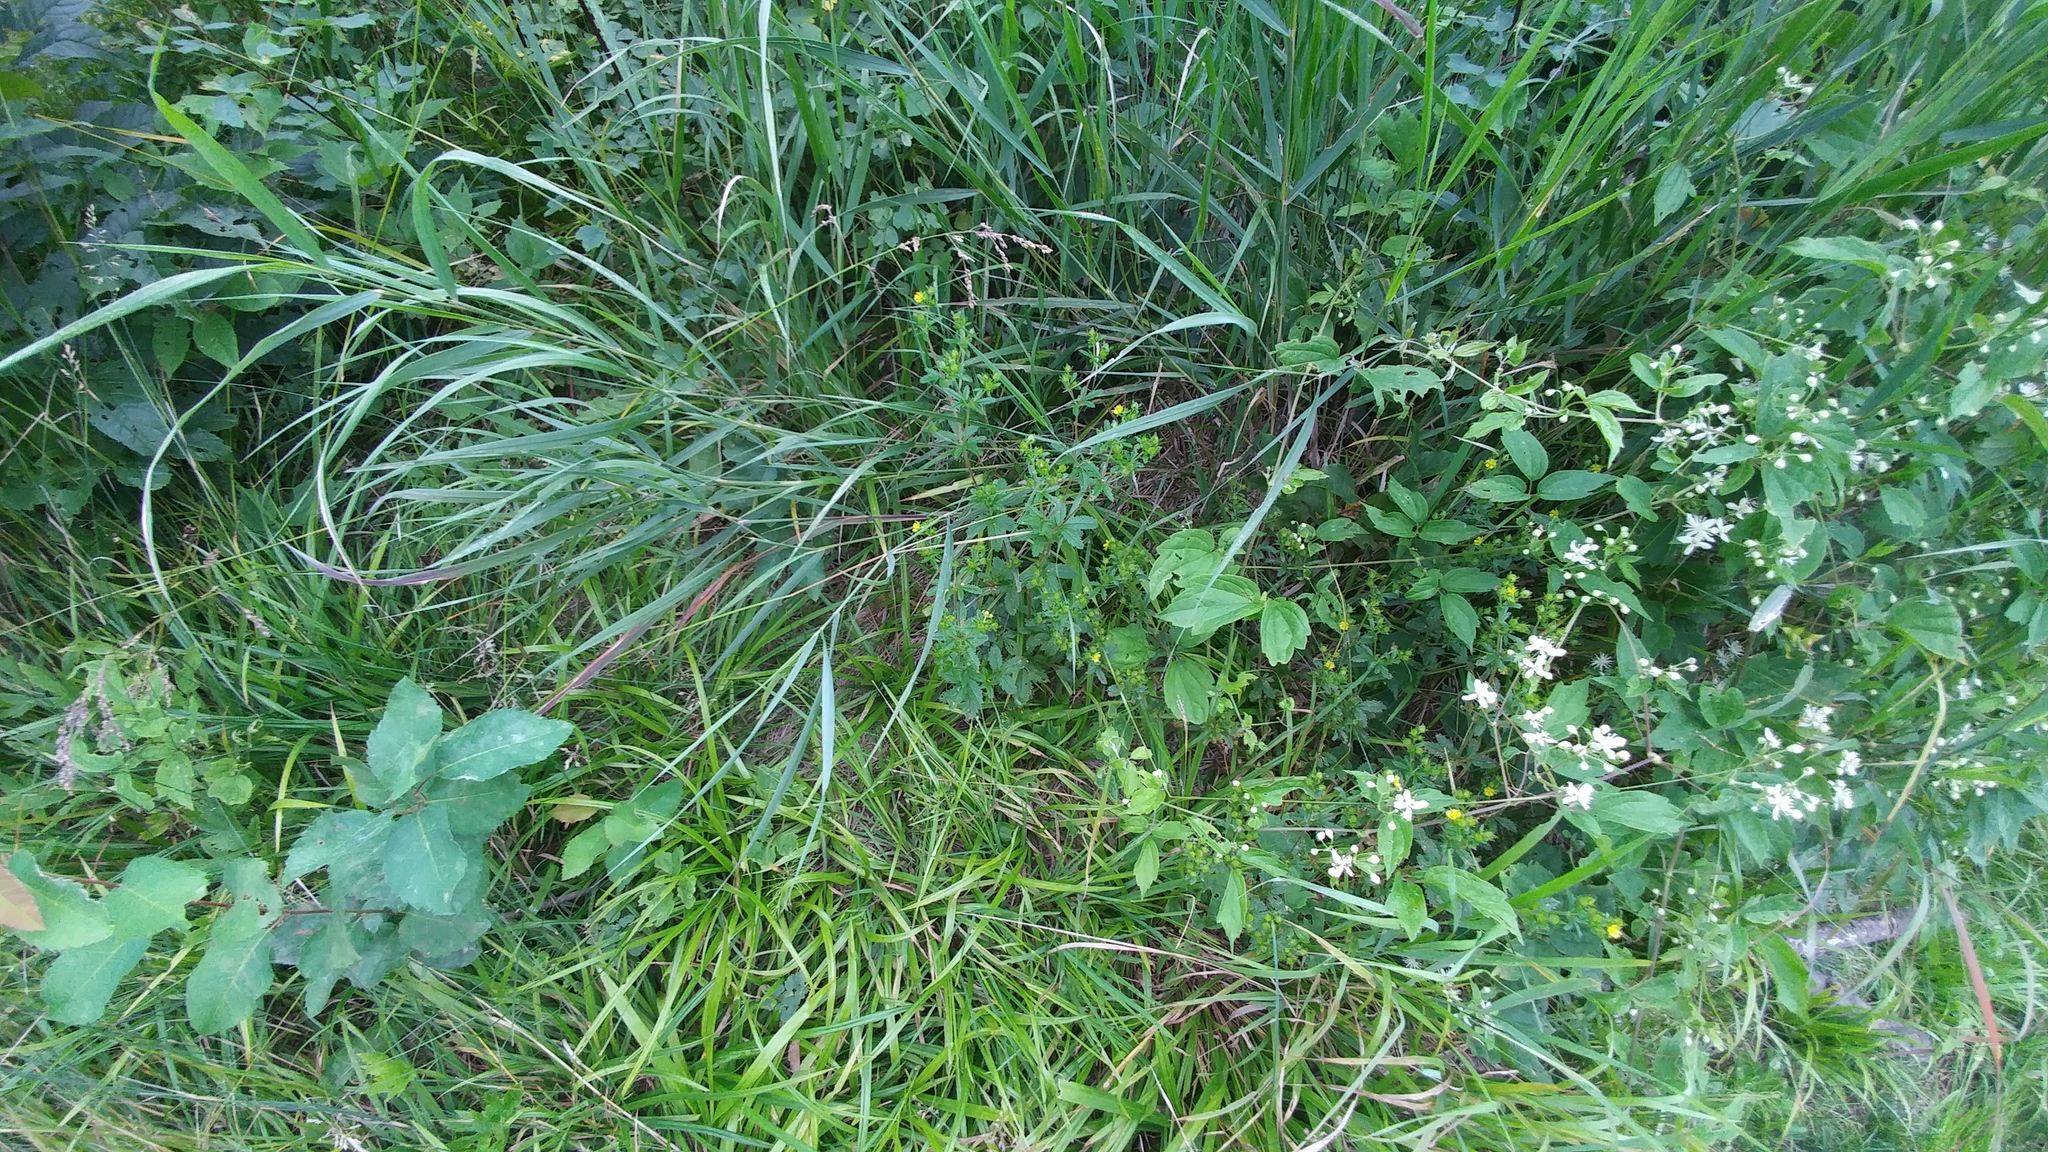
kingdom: Plantae
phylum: Tracheophyta
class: Magnoliopsida
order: Ranunculales
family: Ranunculaceae
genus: Clematis
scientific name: Clematis virginiana
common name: Virgin's-bower
